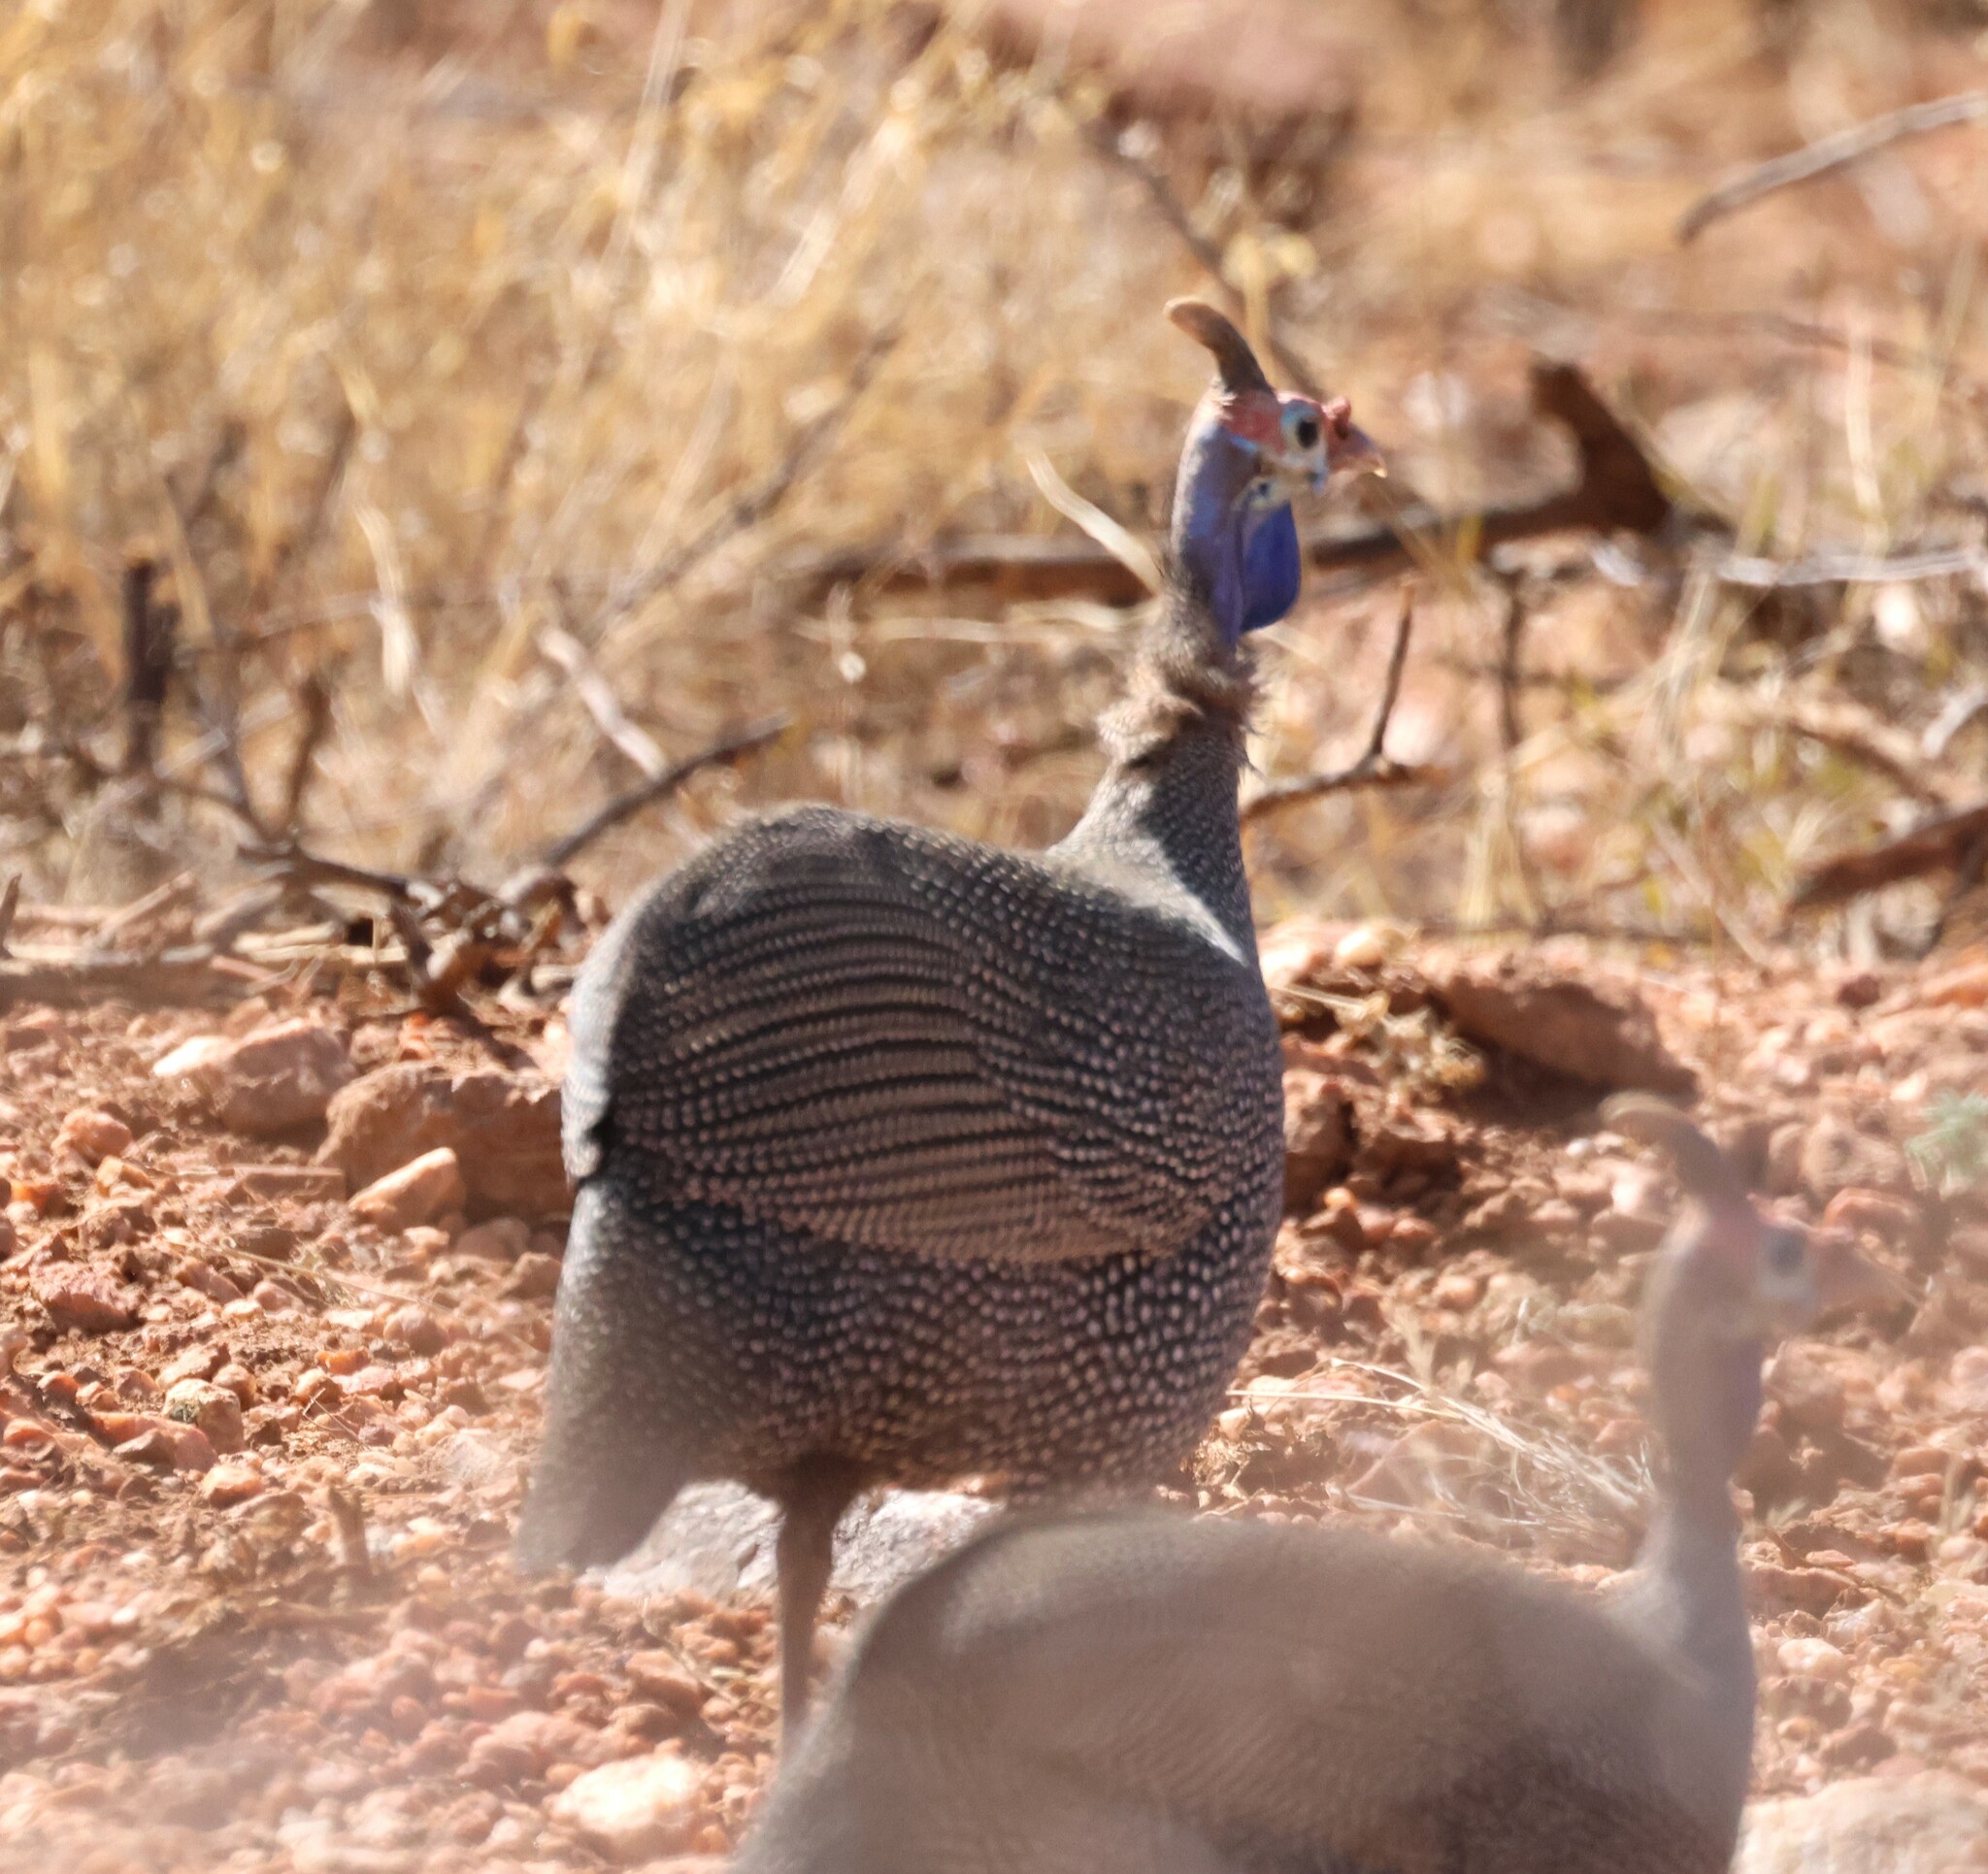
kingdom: Animalia
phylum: Chordata
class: Aves
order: Galliformes
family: Numididae
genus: Numida
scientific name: Numida meleagris
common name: Helmeted guineafowl
